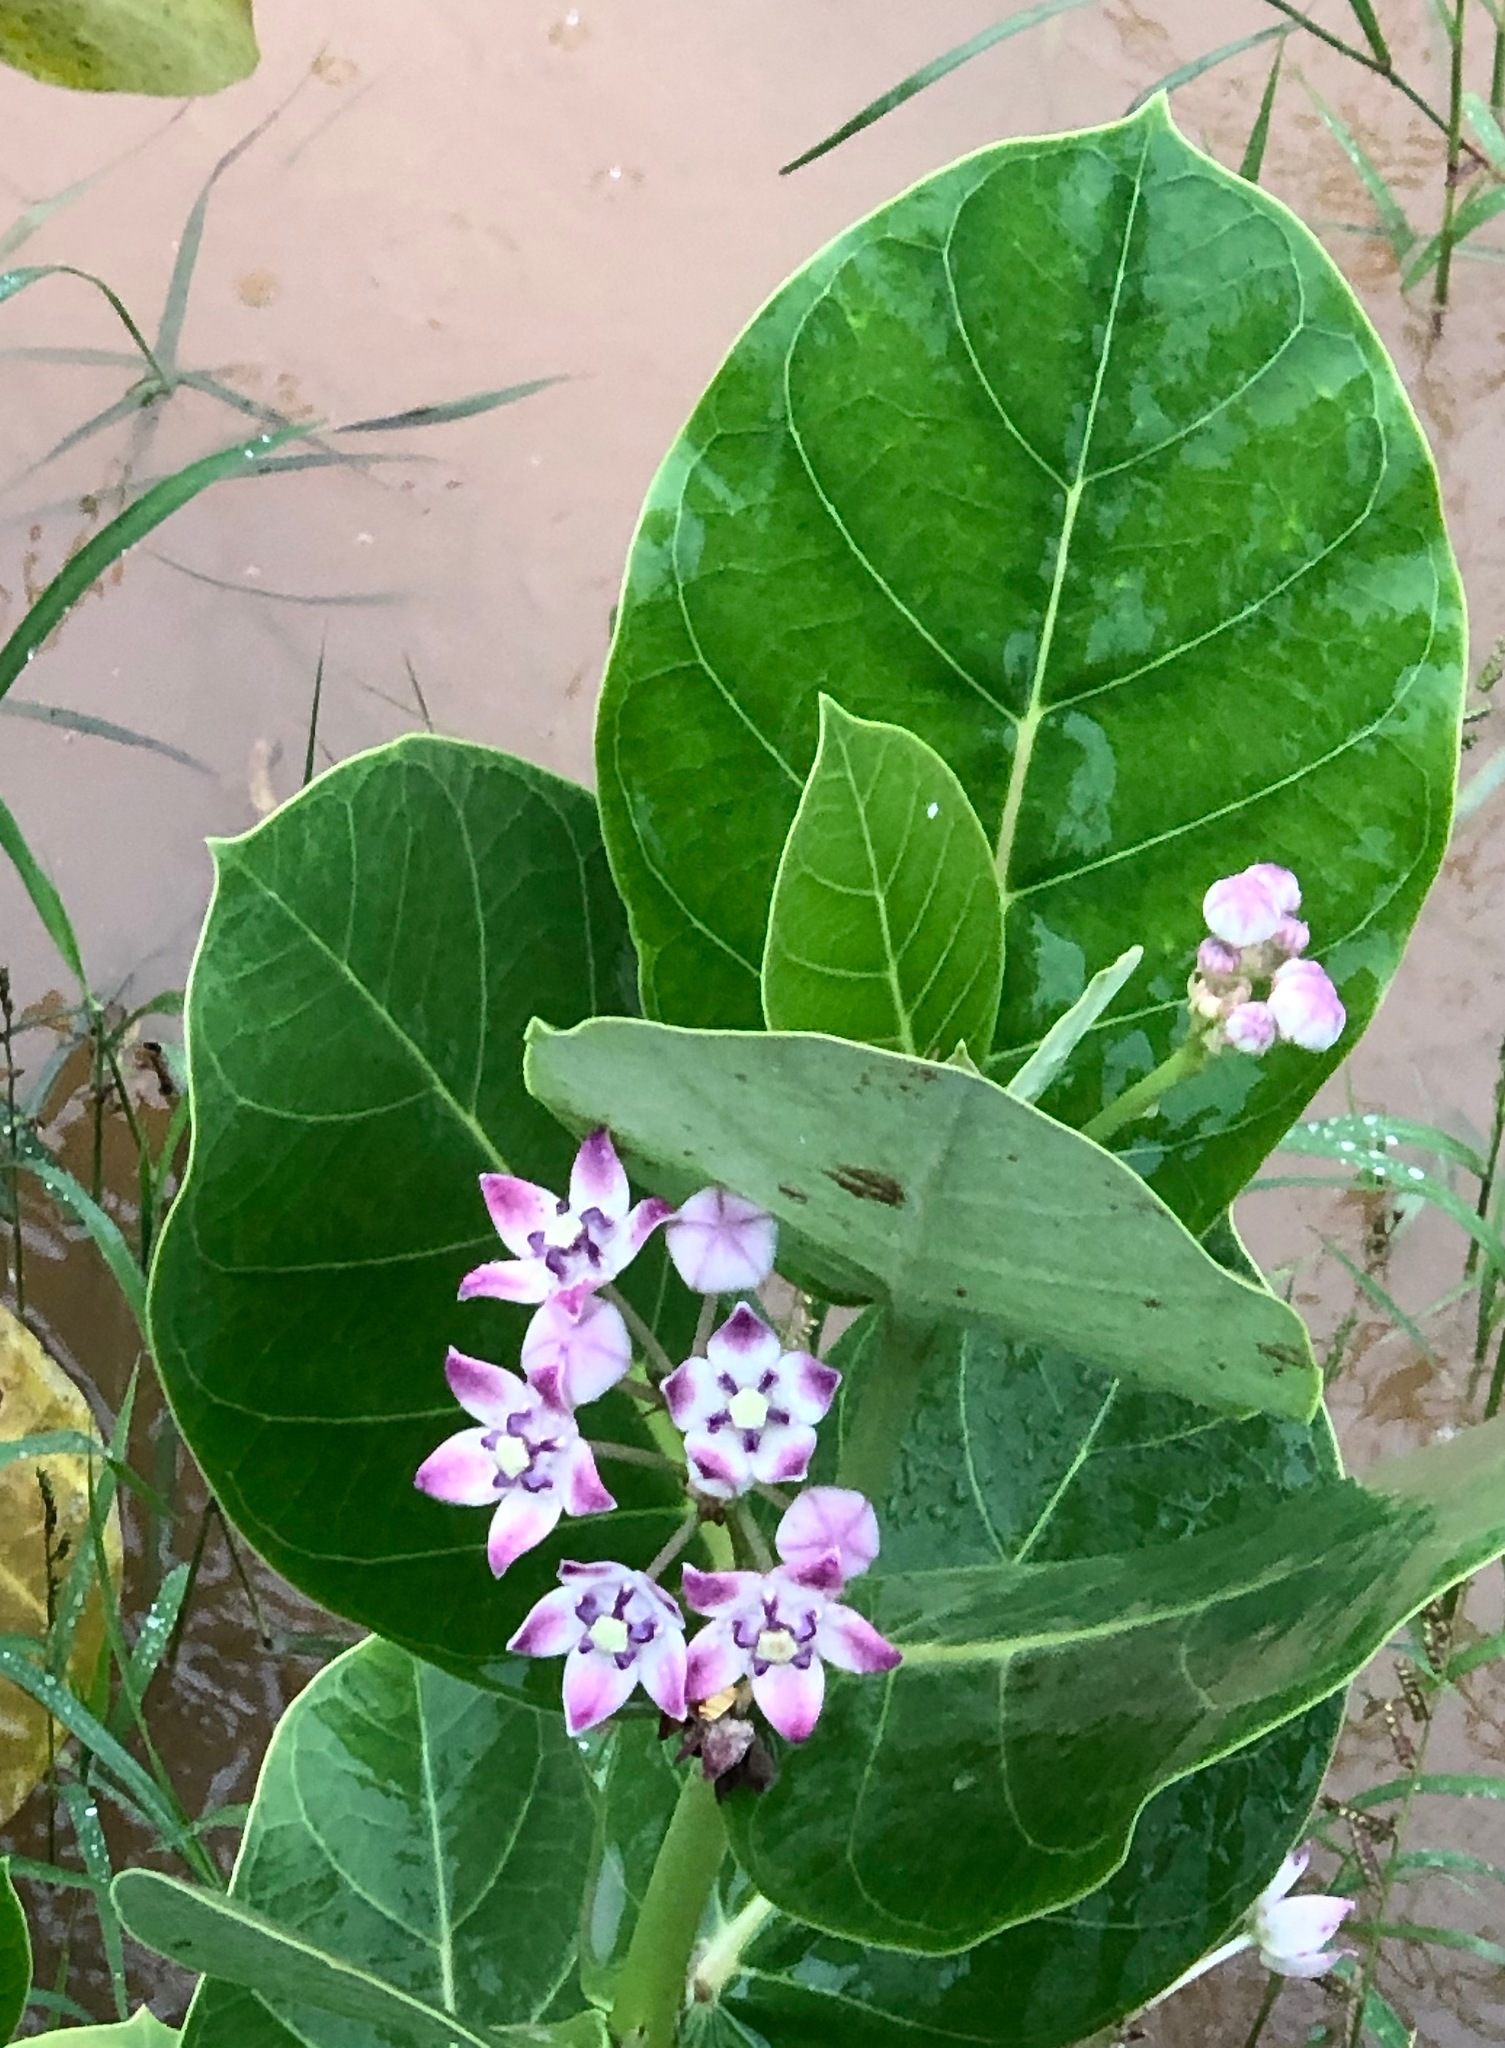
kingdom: Plantae
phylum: Tracheophyta
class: Magnoliopsida
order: Gentianales
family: Apocynaceae
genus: Calotropis
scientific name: Calotropis procera
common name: Roostertree
